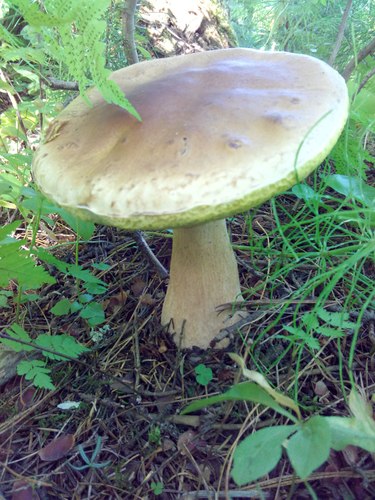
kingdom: Fungi
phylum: Basidiomycota
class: Agaricomycetes
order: Boletales
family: Boletaceae
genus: Boletus
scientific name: Boletus edulis
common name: Cep
